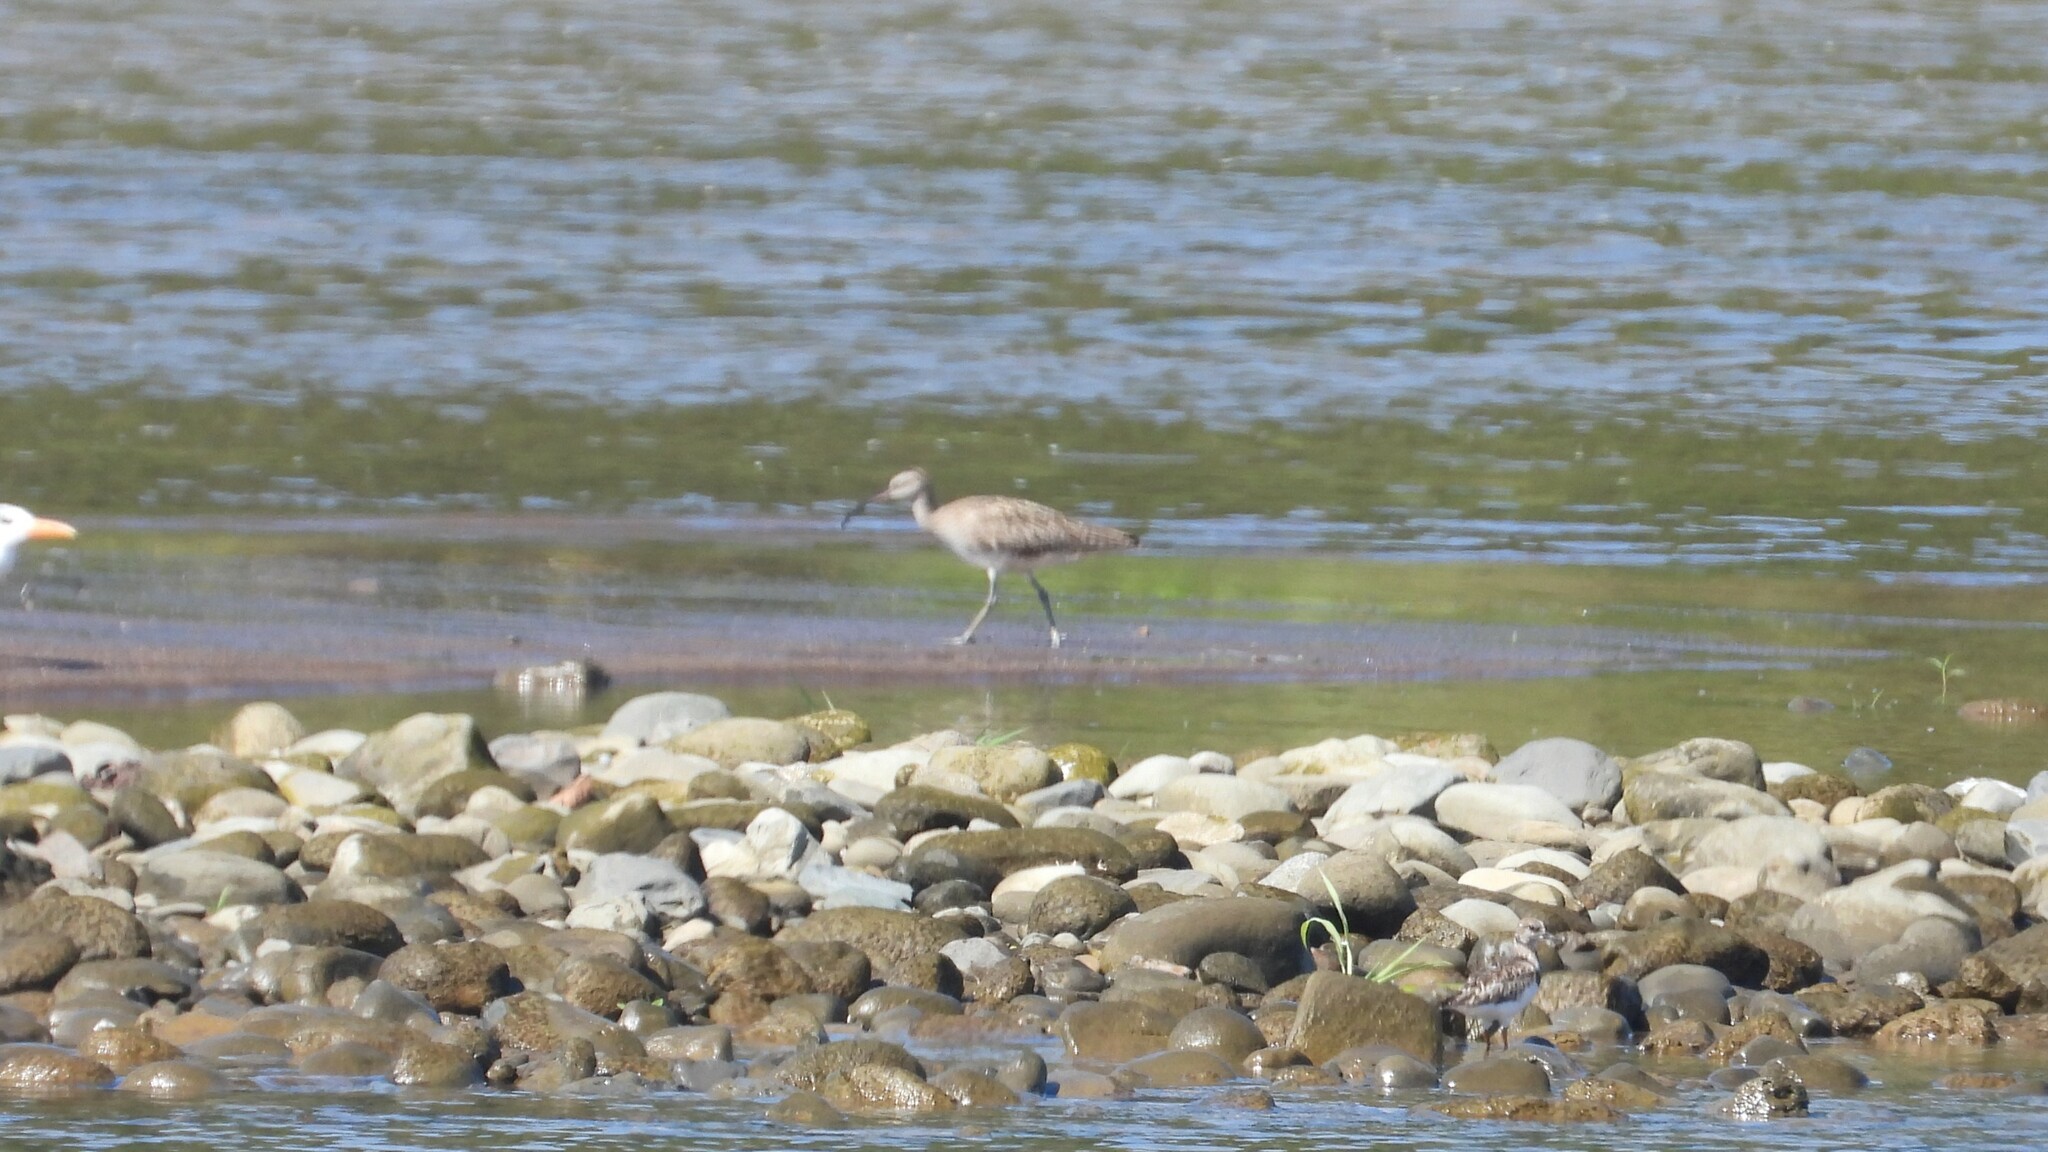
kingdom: Animalia
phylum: Chordata
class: Aves
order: Charadriiformes
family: Scolopacidae
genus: Numenius
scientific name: Numenius phaeopus
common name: Whimbrel
